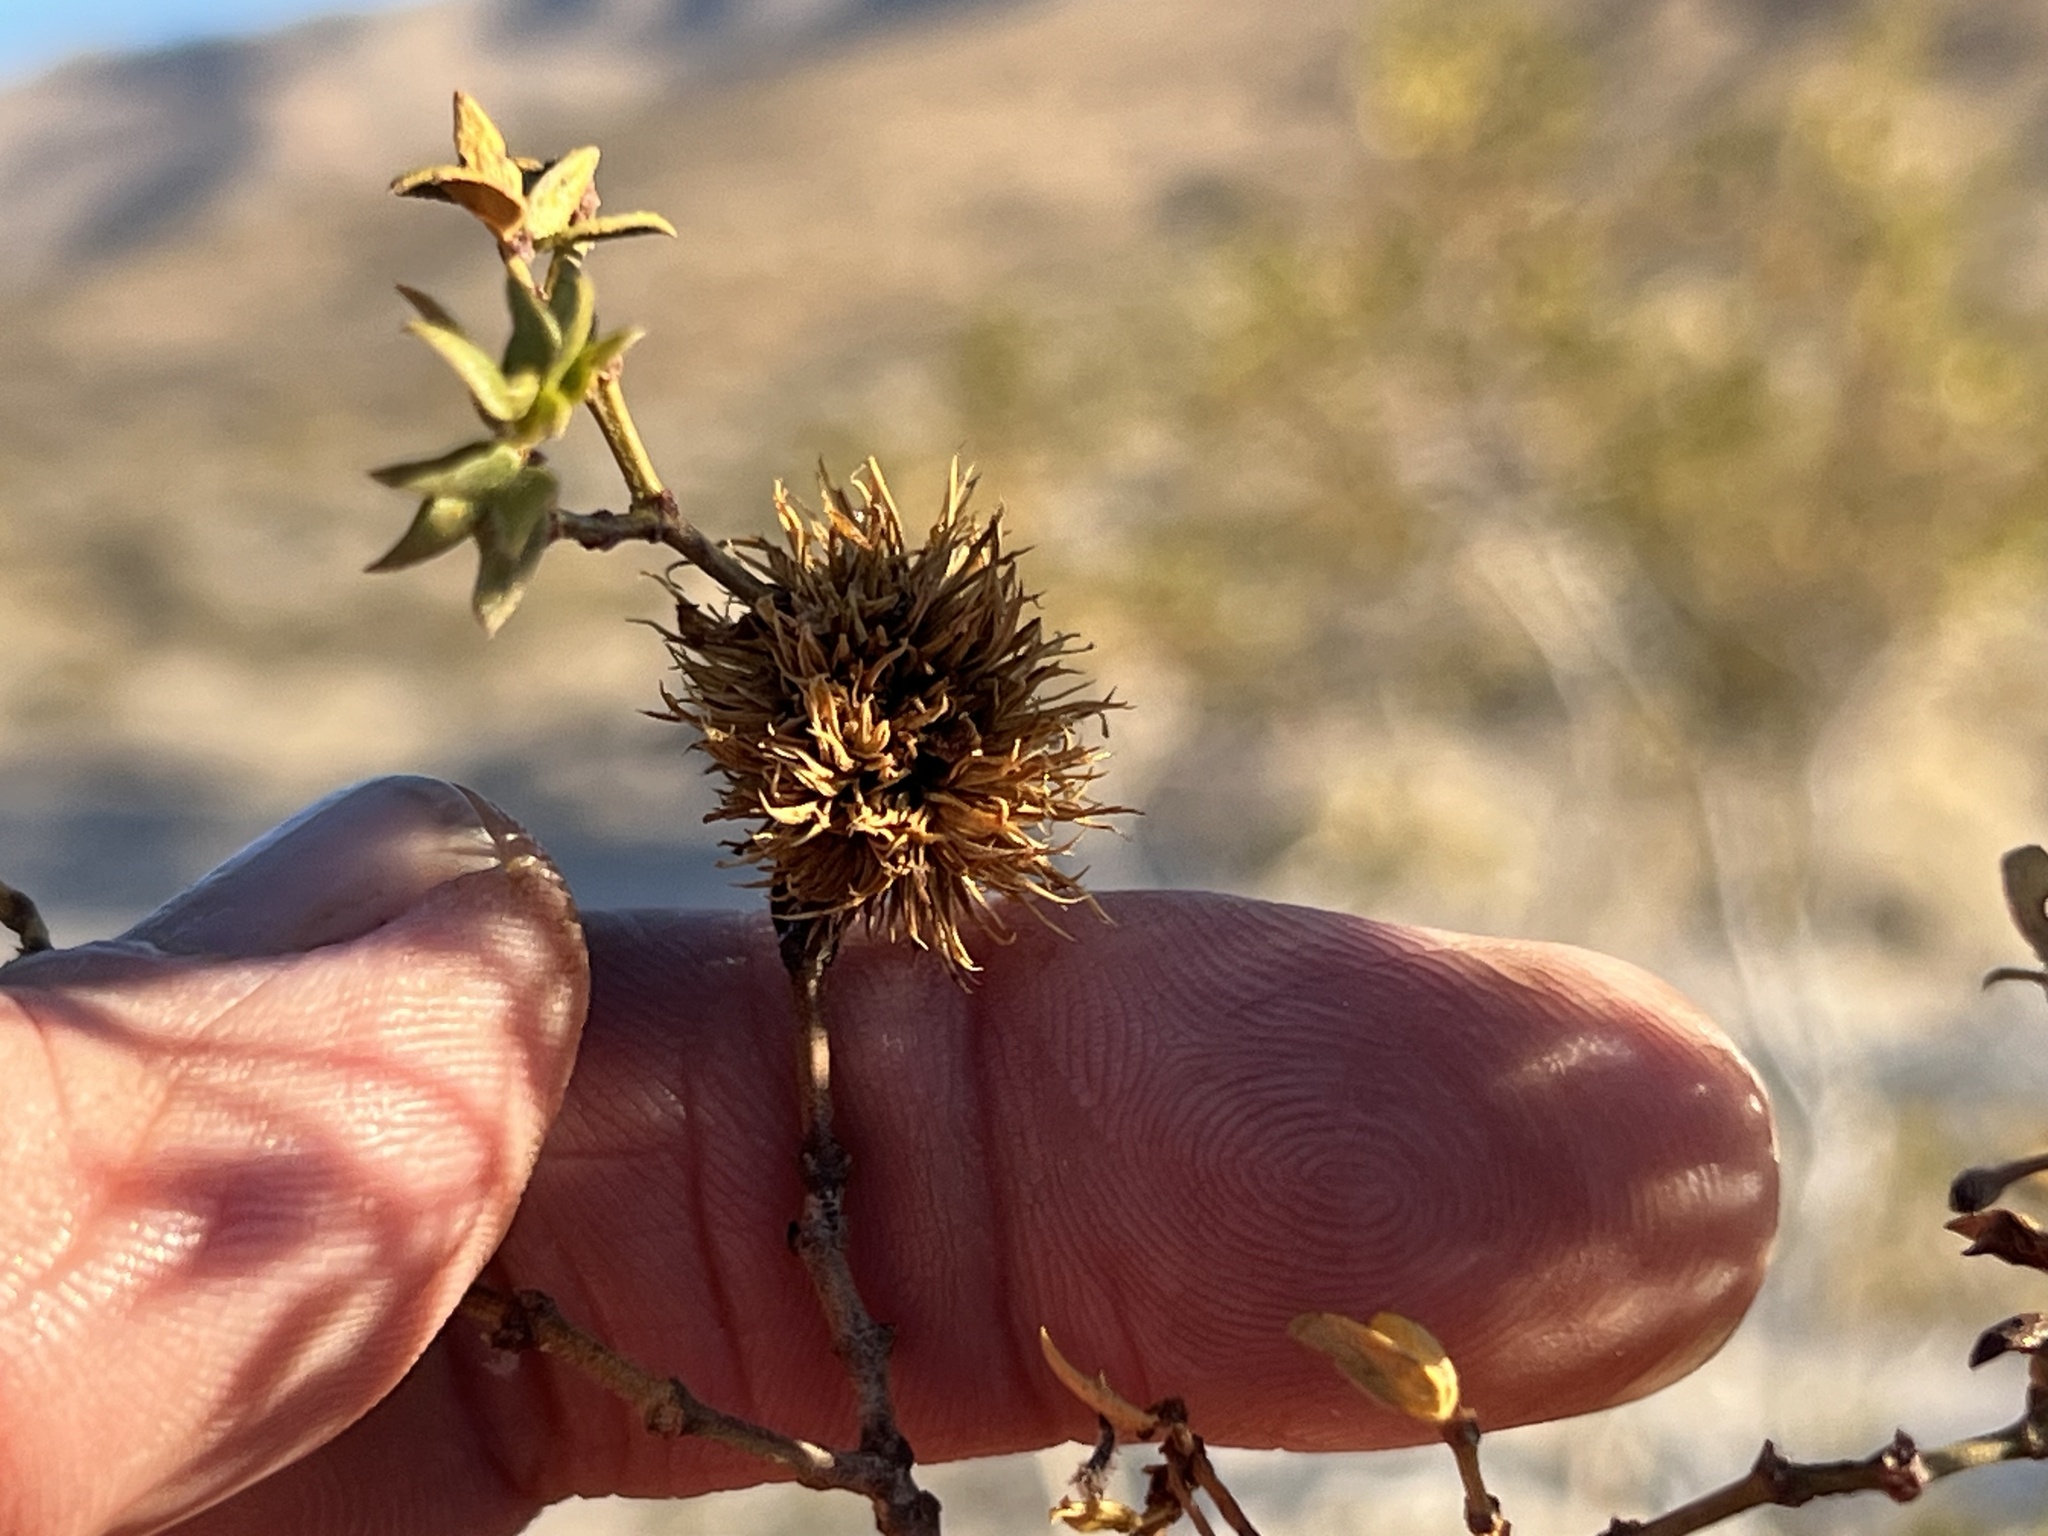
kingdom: Animalia
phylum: Arthropoda
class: Insecta
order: Diptera
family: Cecidomyiidae
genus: Asphondylia
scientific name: Asphondylia auripila
